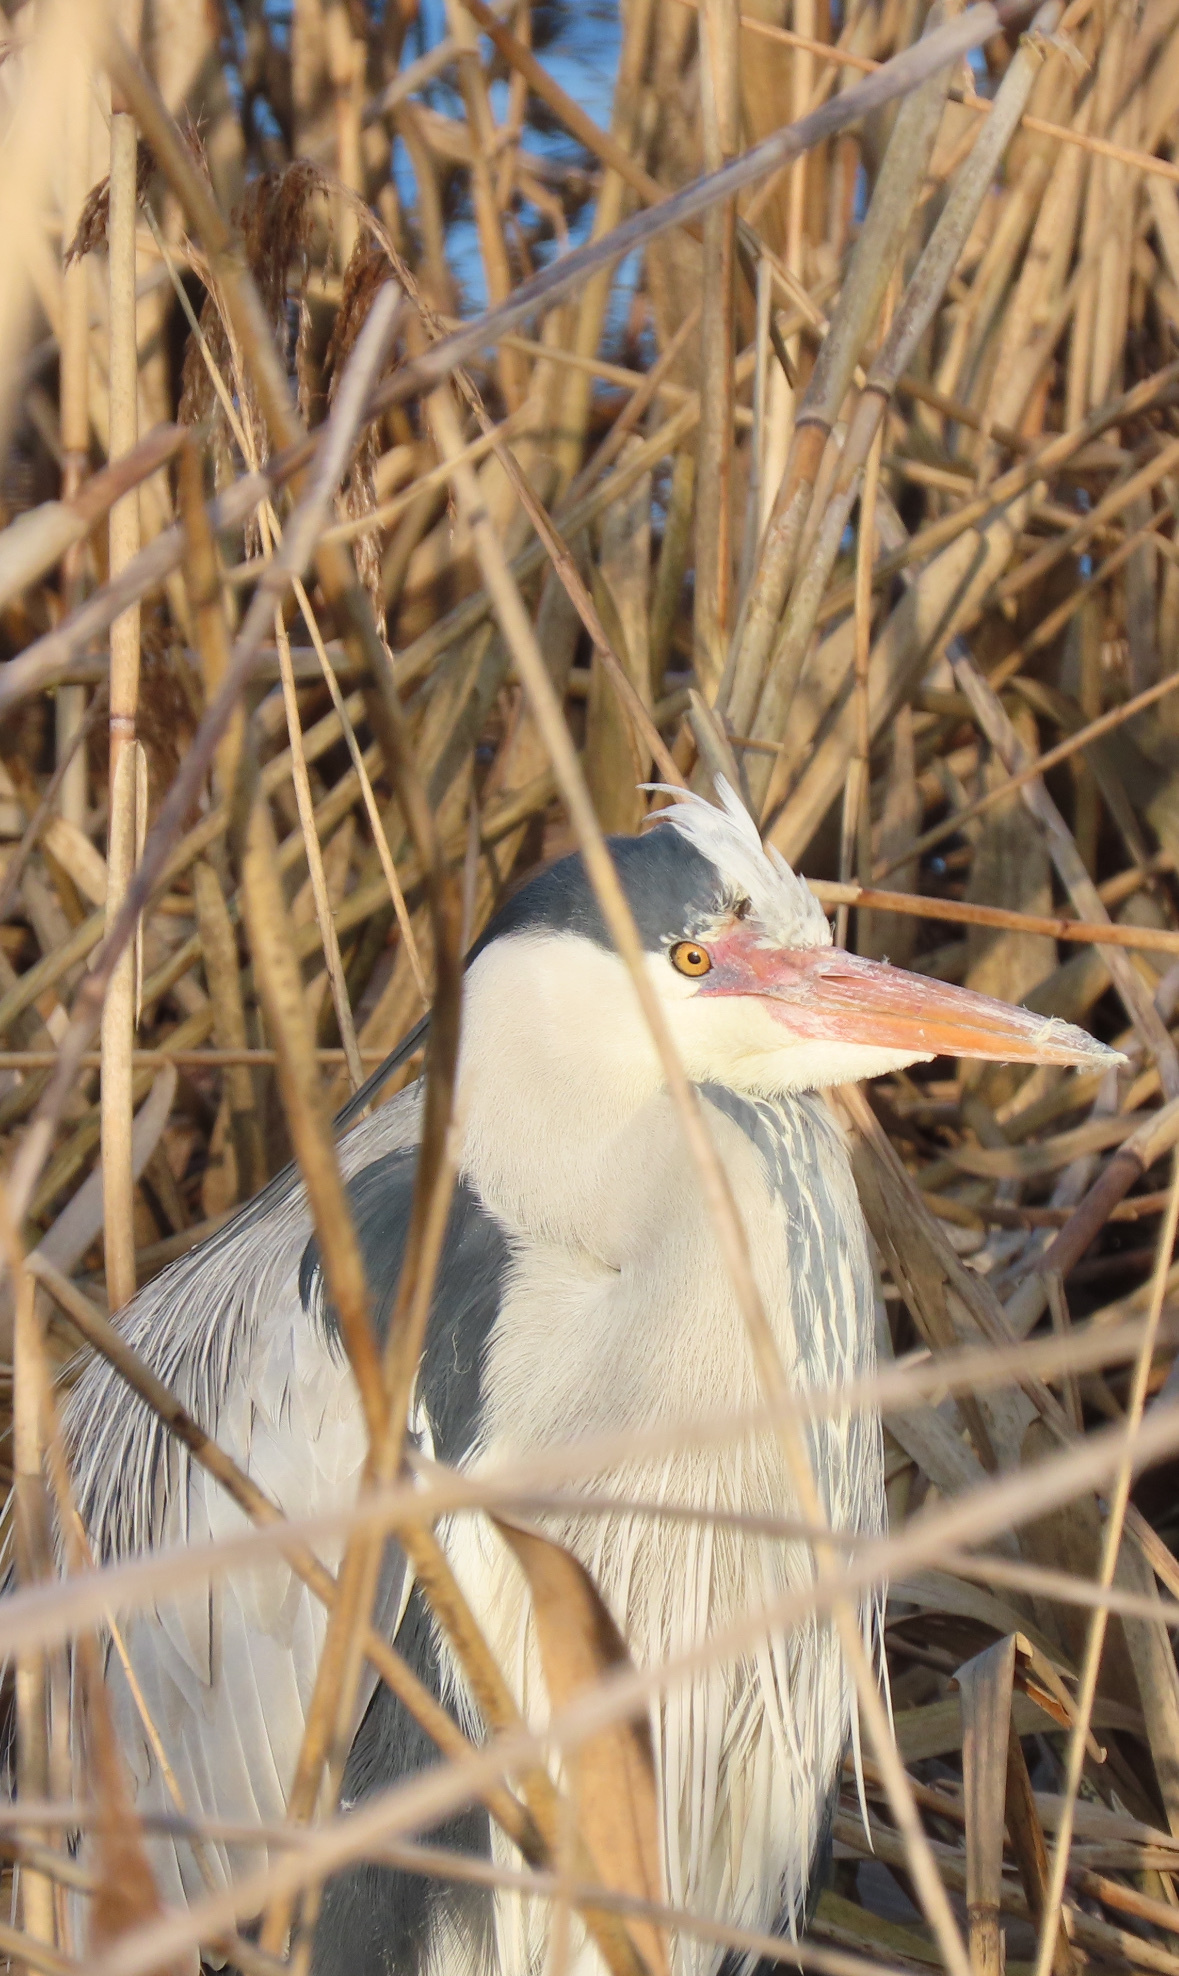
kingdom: Animalia
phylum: Chordata
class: Aves
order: Pelecaniformes
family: Ardeidae
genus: Ardea
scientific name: Ardea cinerea
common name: Grey heron
